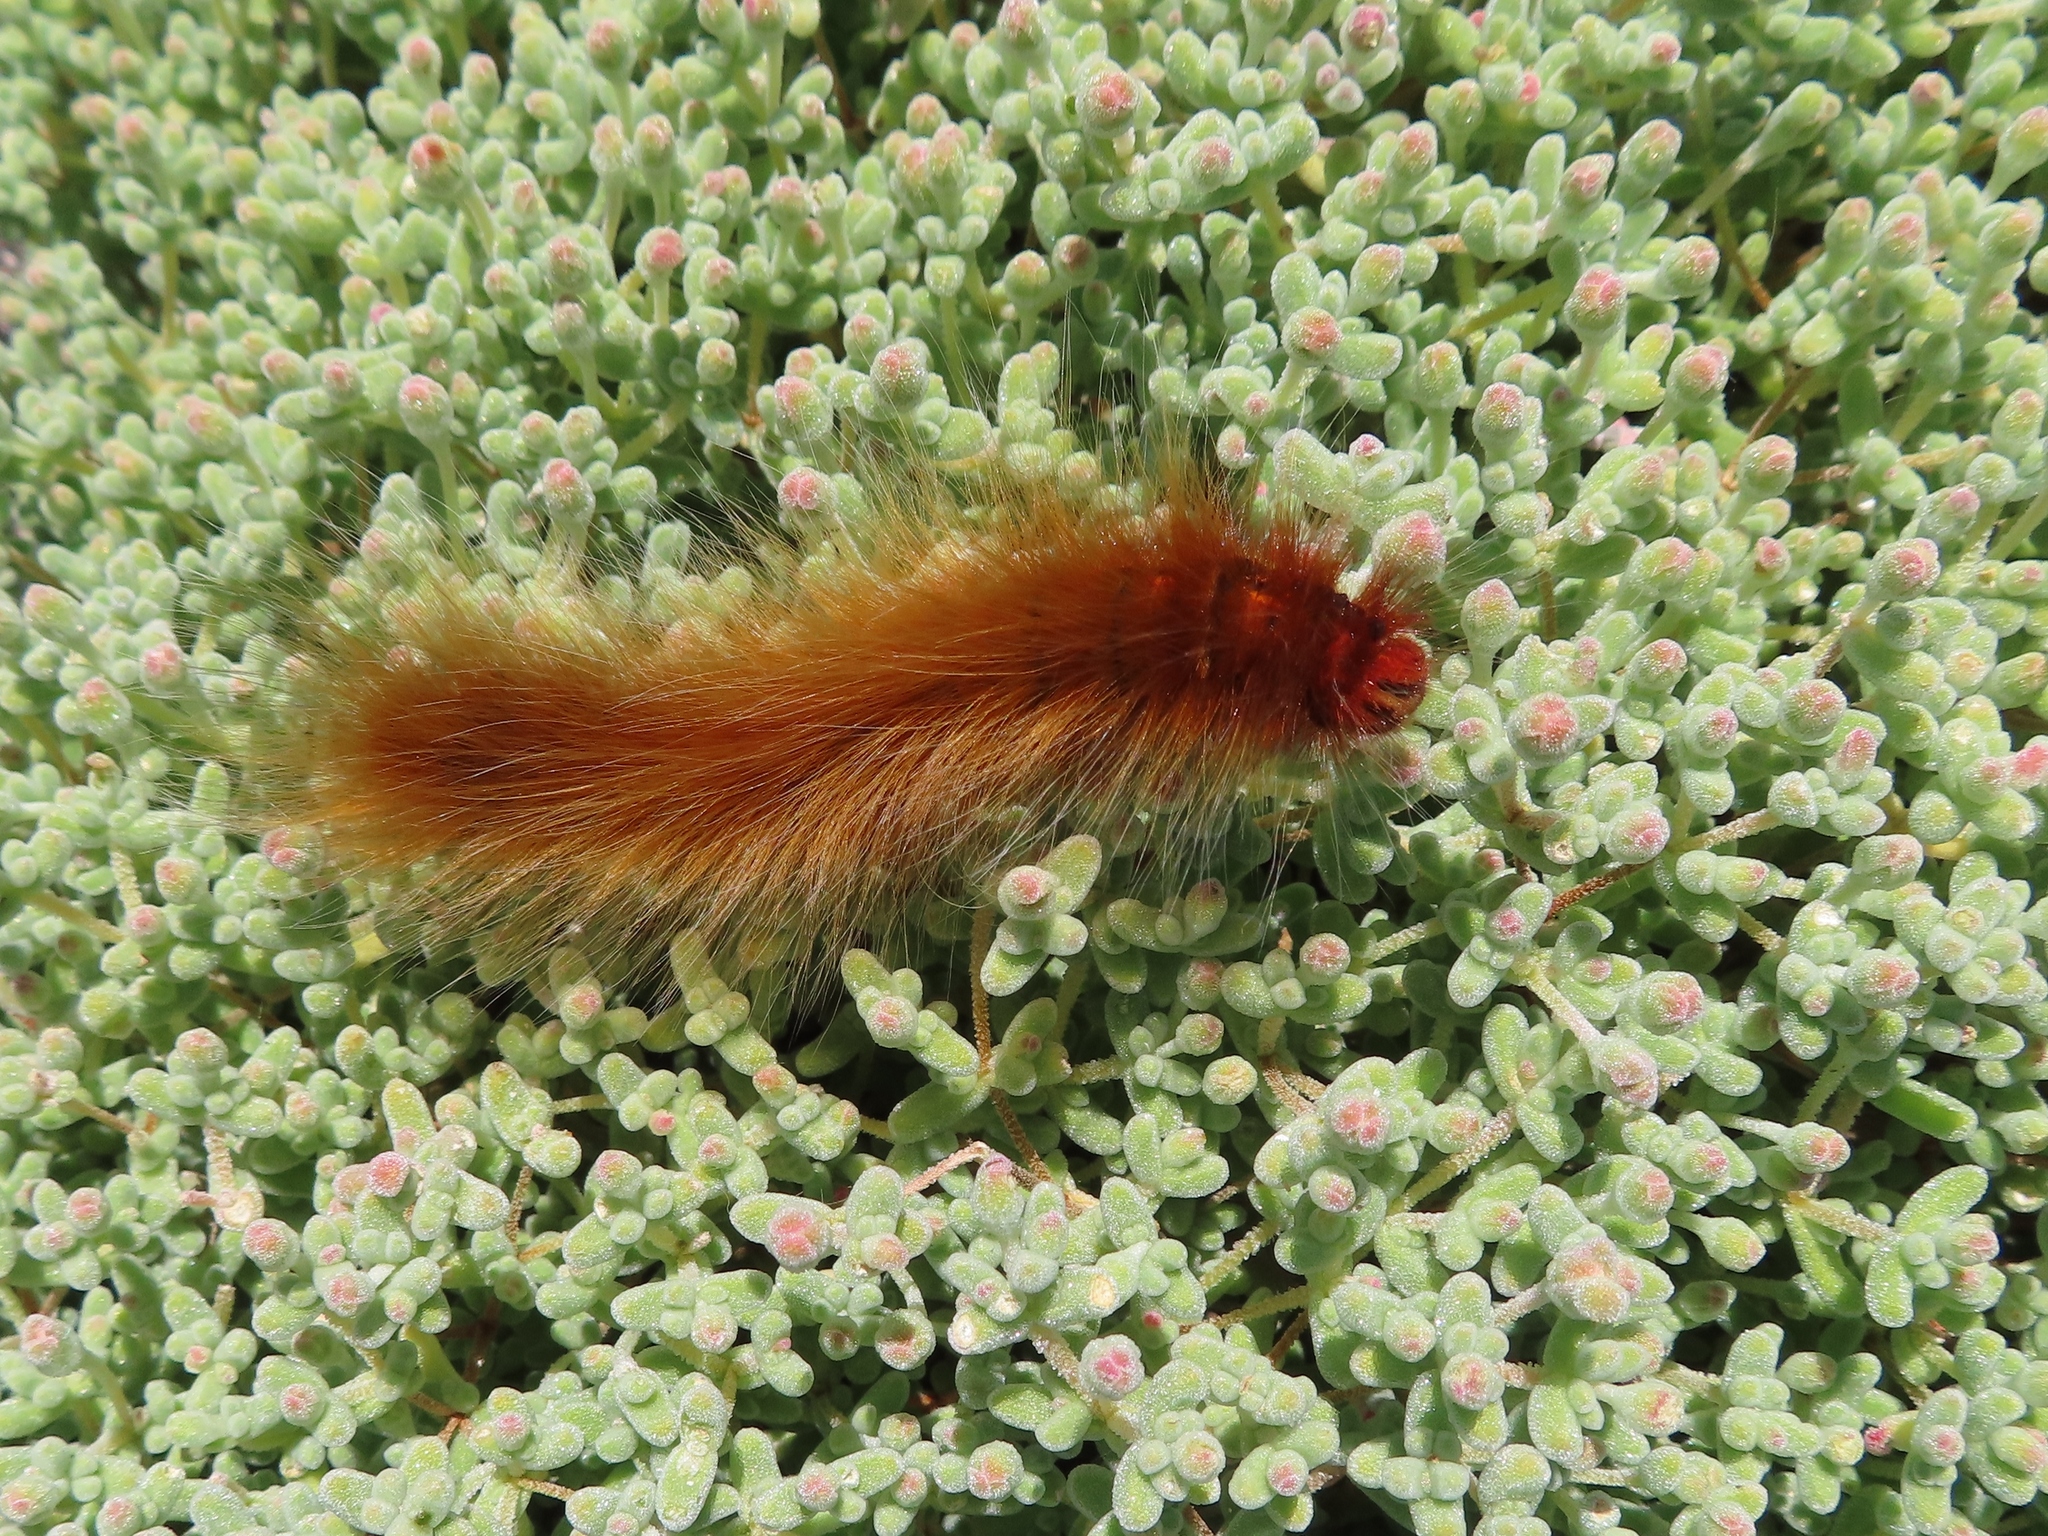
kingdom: Animalia
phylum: Arthropoda
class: Insecta
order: Lepidoptera
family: Lasiocampidae
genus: Mesocelis
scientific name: Mesocelis monticola
